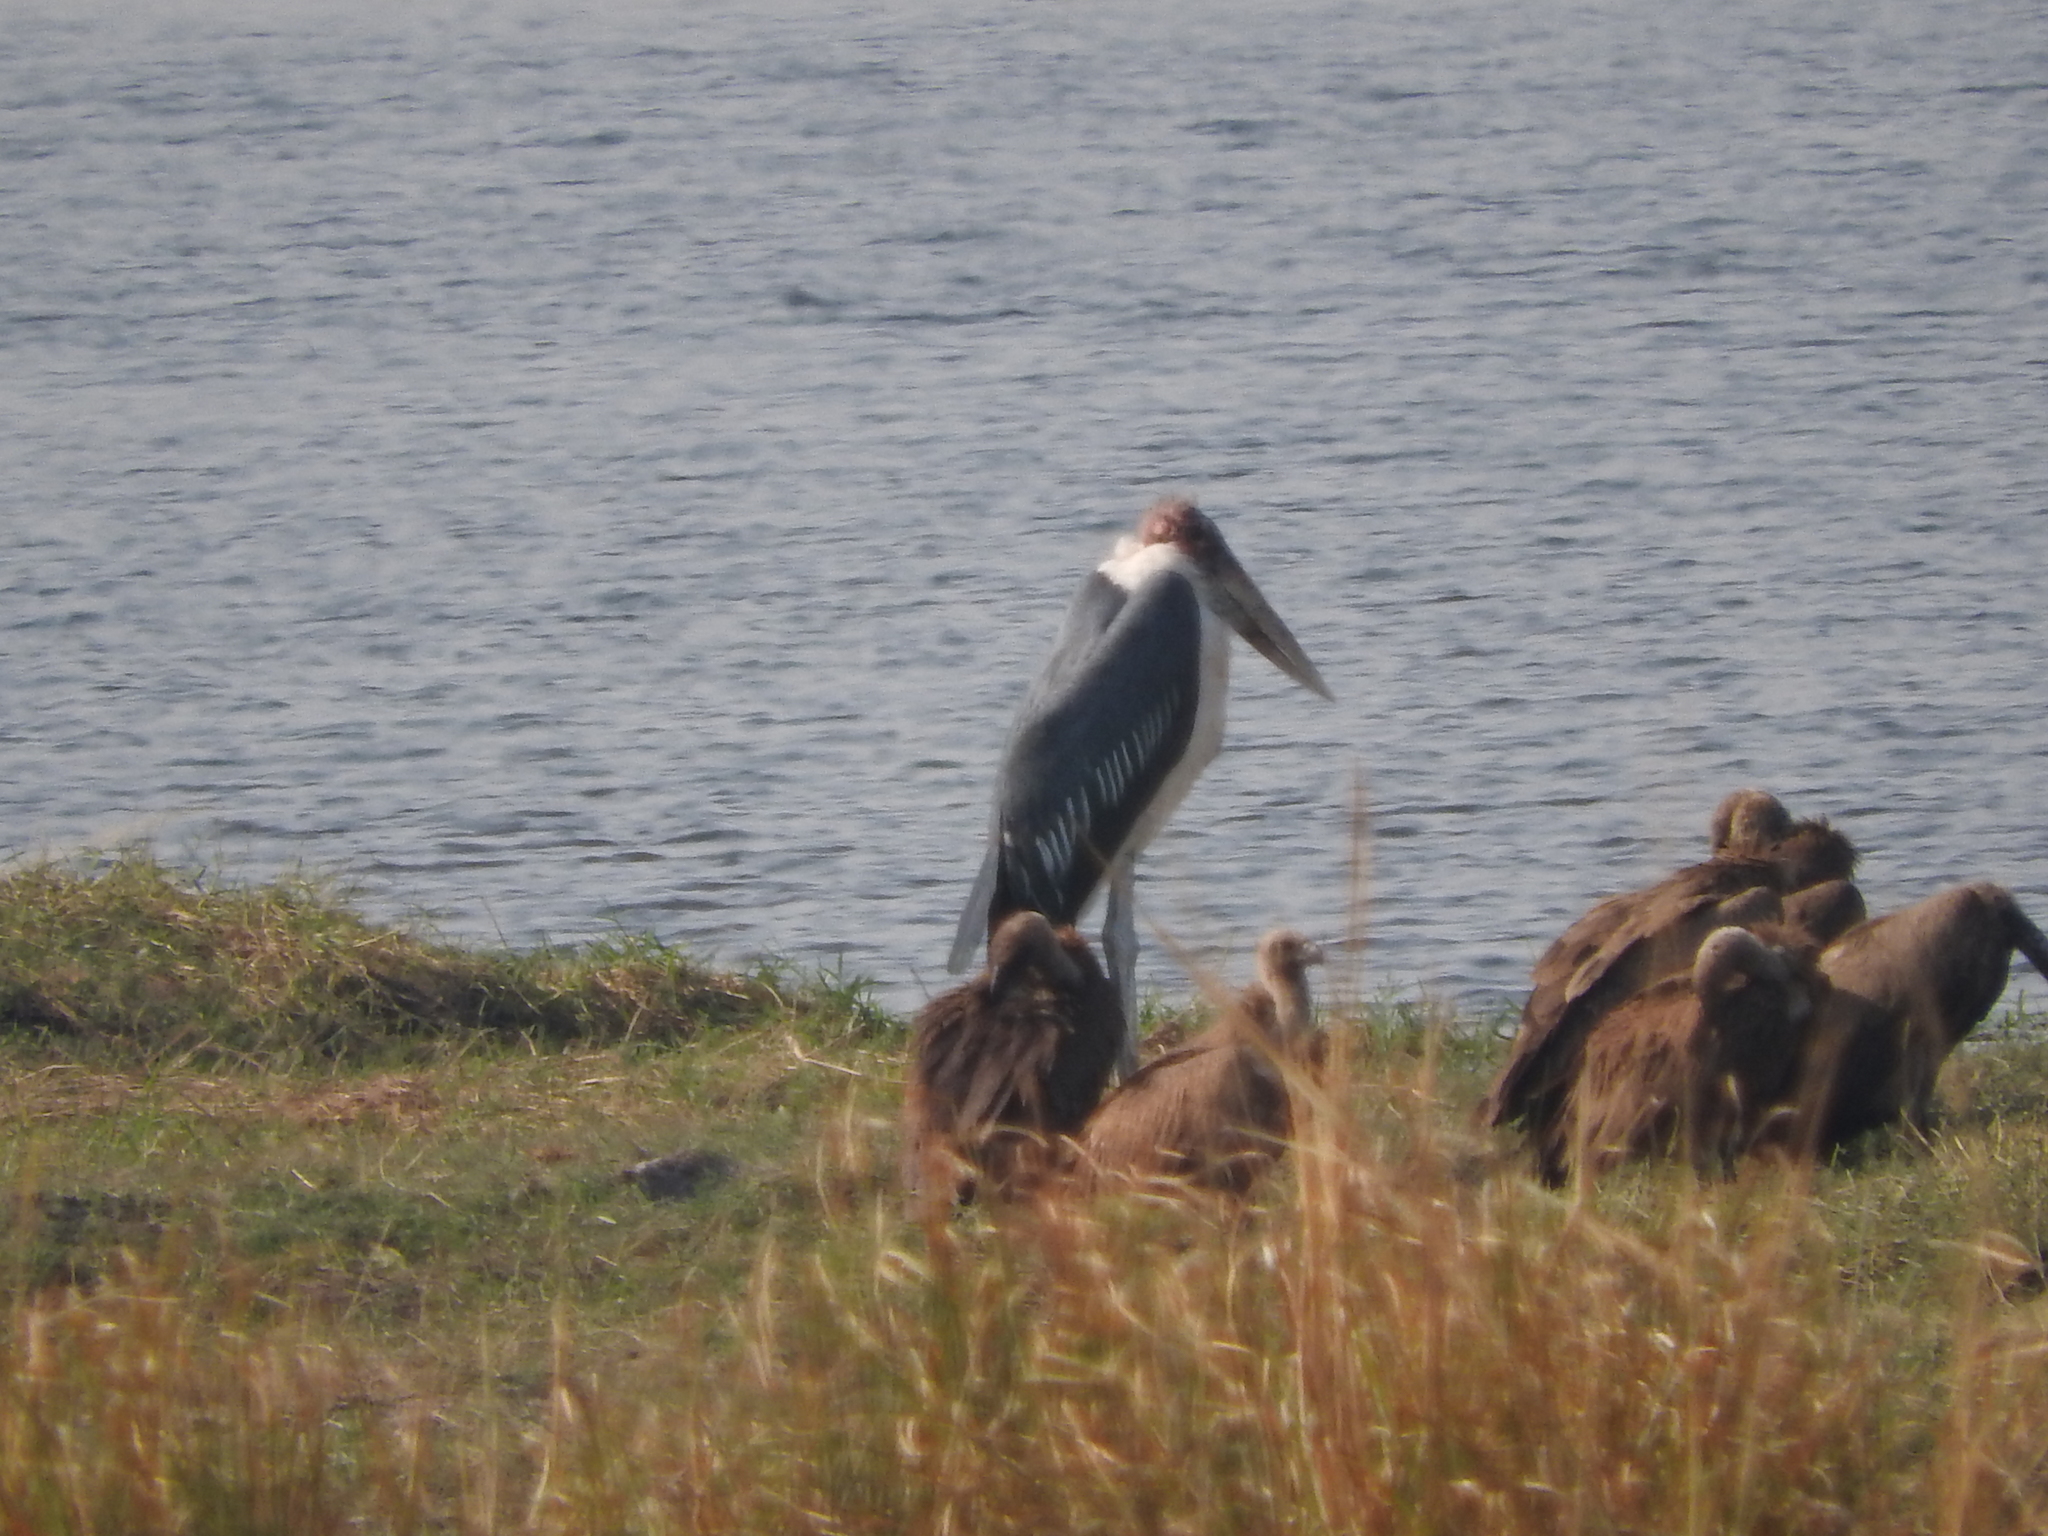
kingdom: Animalia
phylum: Chordata
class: Aves
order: Ciconiiformes
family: Ciconiidae
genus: Leptoptilos
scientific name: Leptoptilos crumenifer
